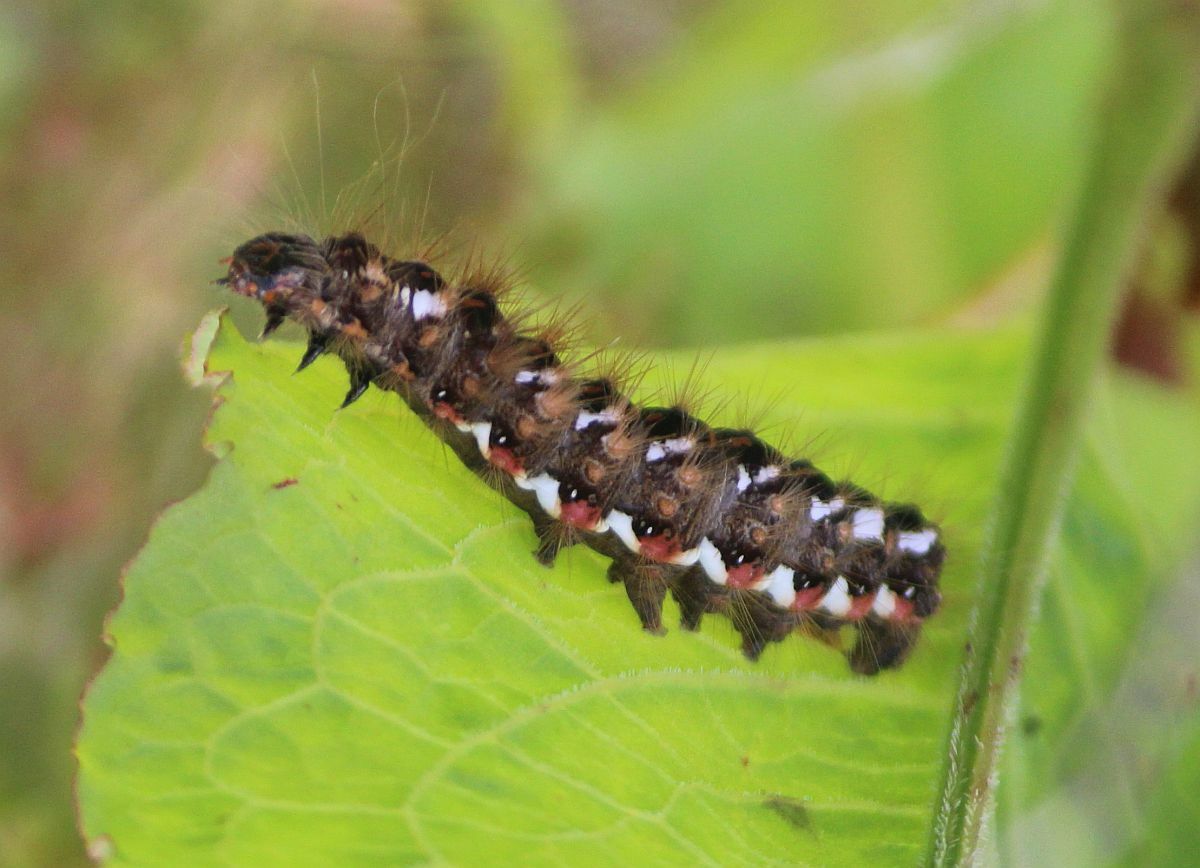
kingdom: Animalia
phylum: Arthropoda
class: Insecta
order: Lepidoptera
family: Noctuidae
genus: Acronicta
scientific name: Acronicta rumicis
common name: Knot grass
